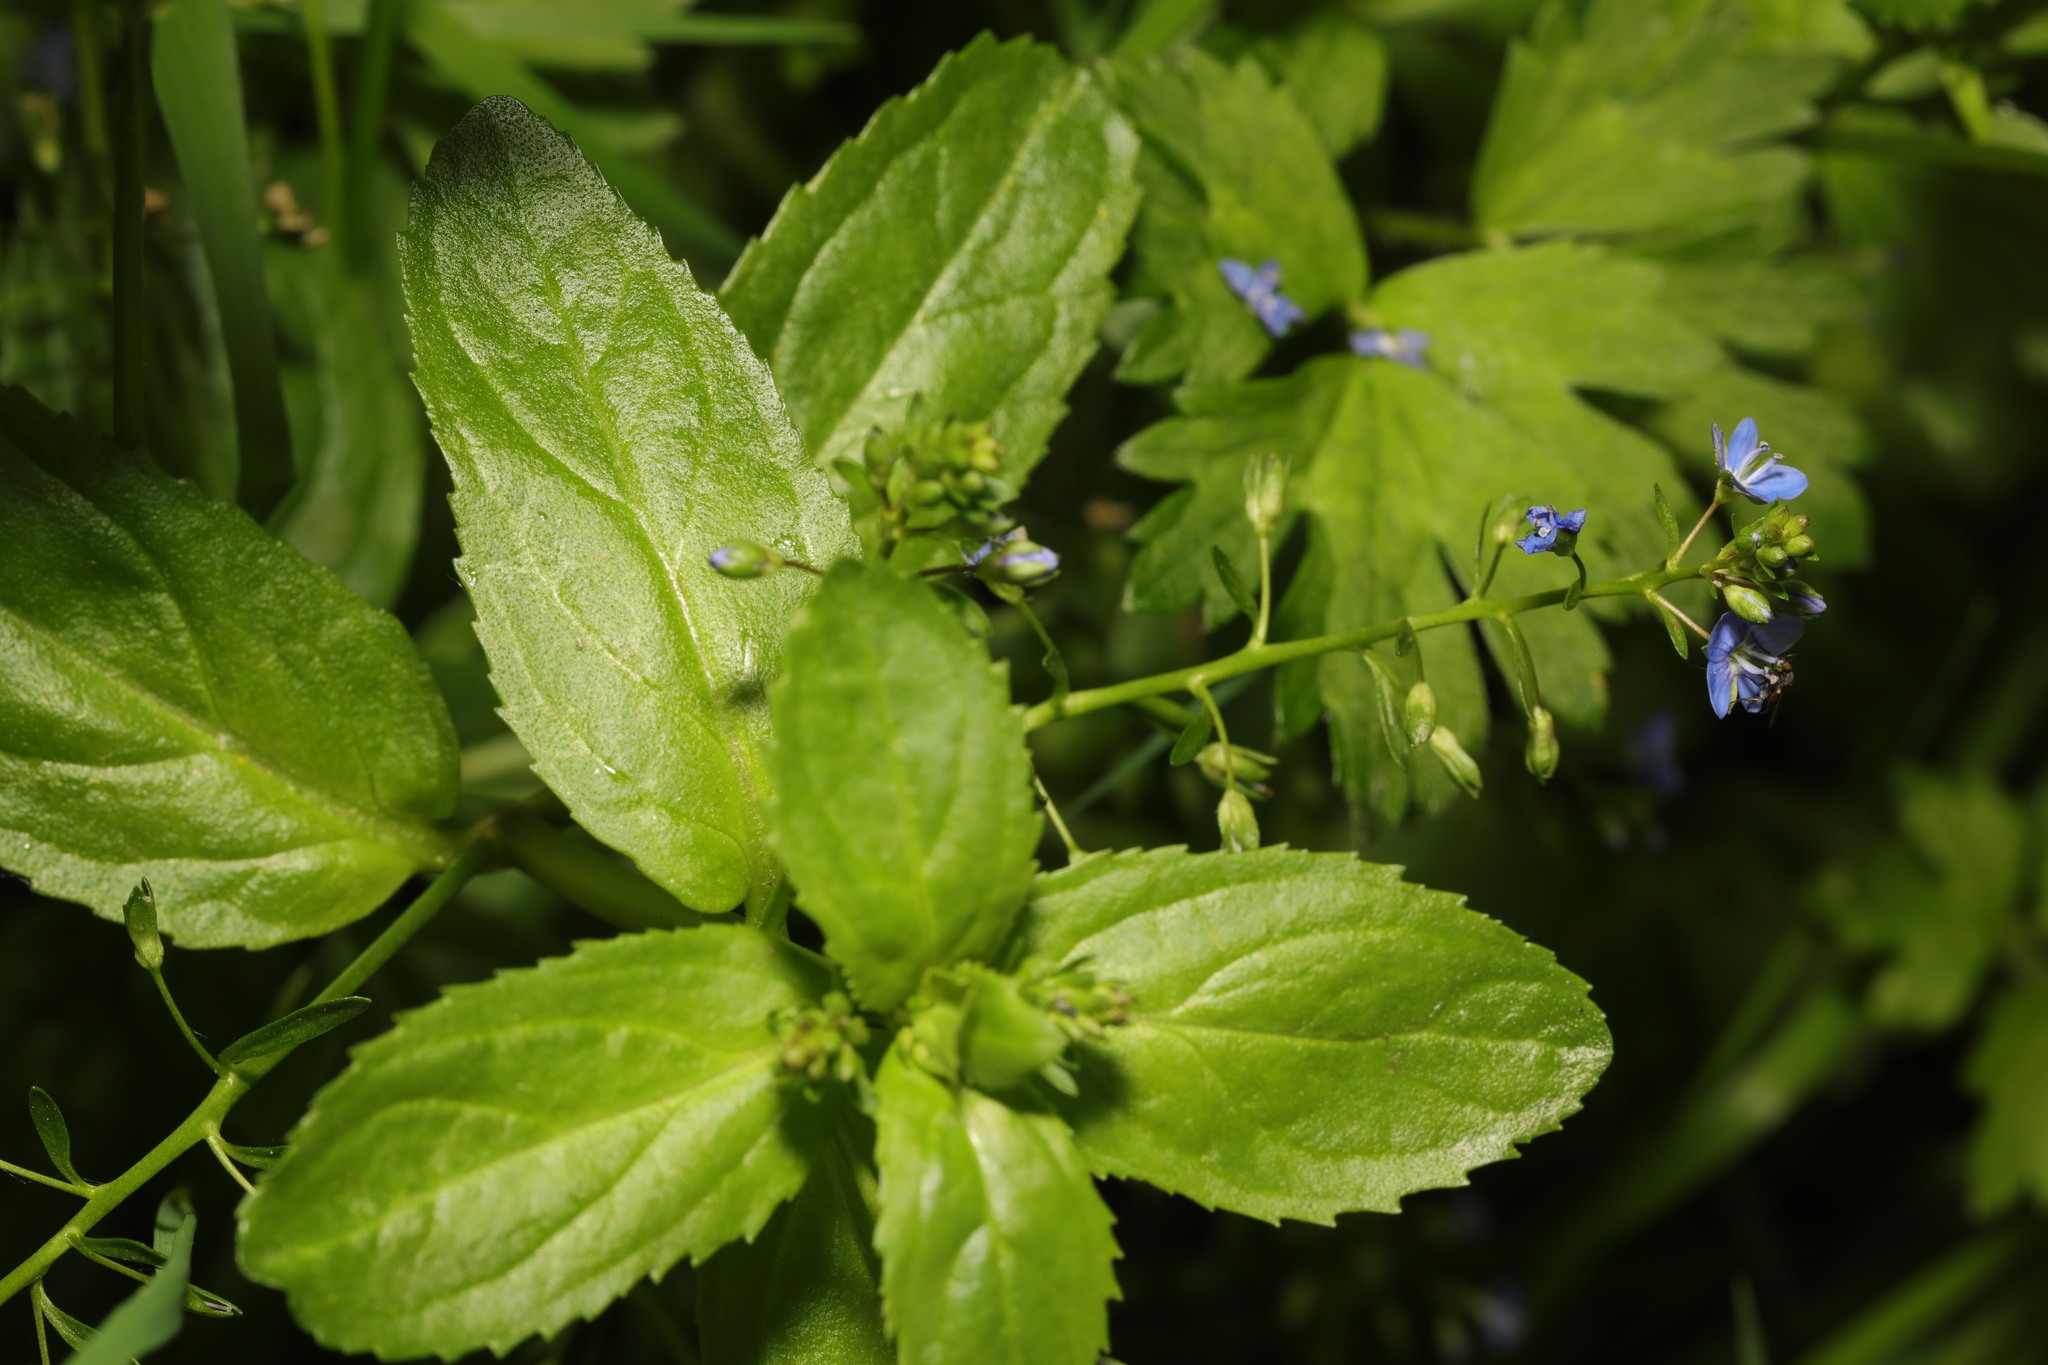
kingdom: Plantae
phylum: Tracheophyta
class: Magnoliopsida
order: Lamiales
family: Plantaginaceae
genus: Veronica
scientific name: Veronica beccabunga
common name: Brooklime
